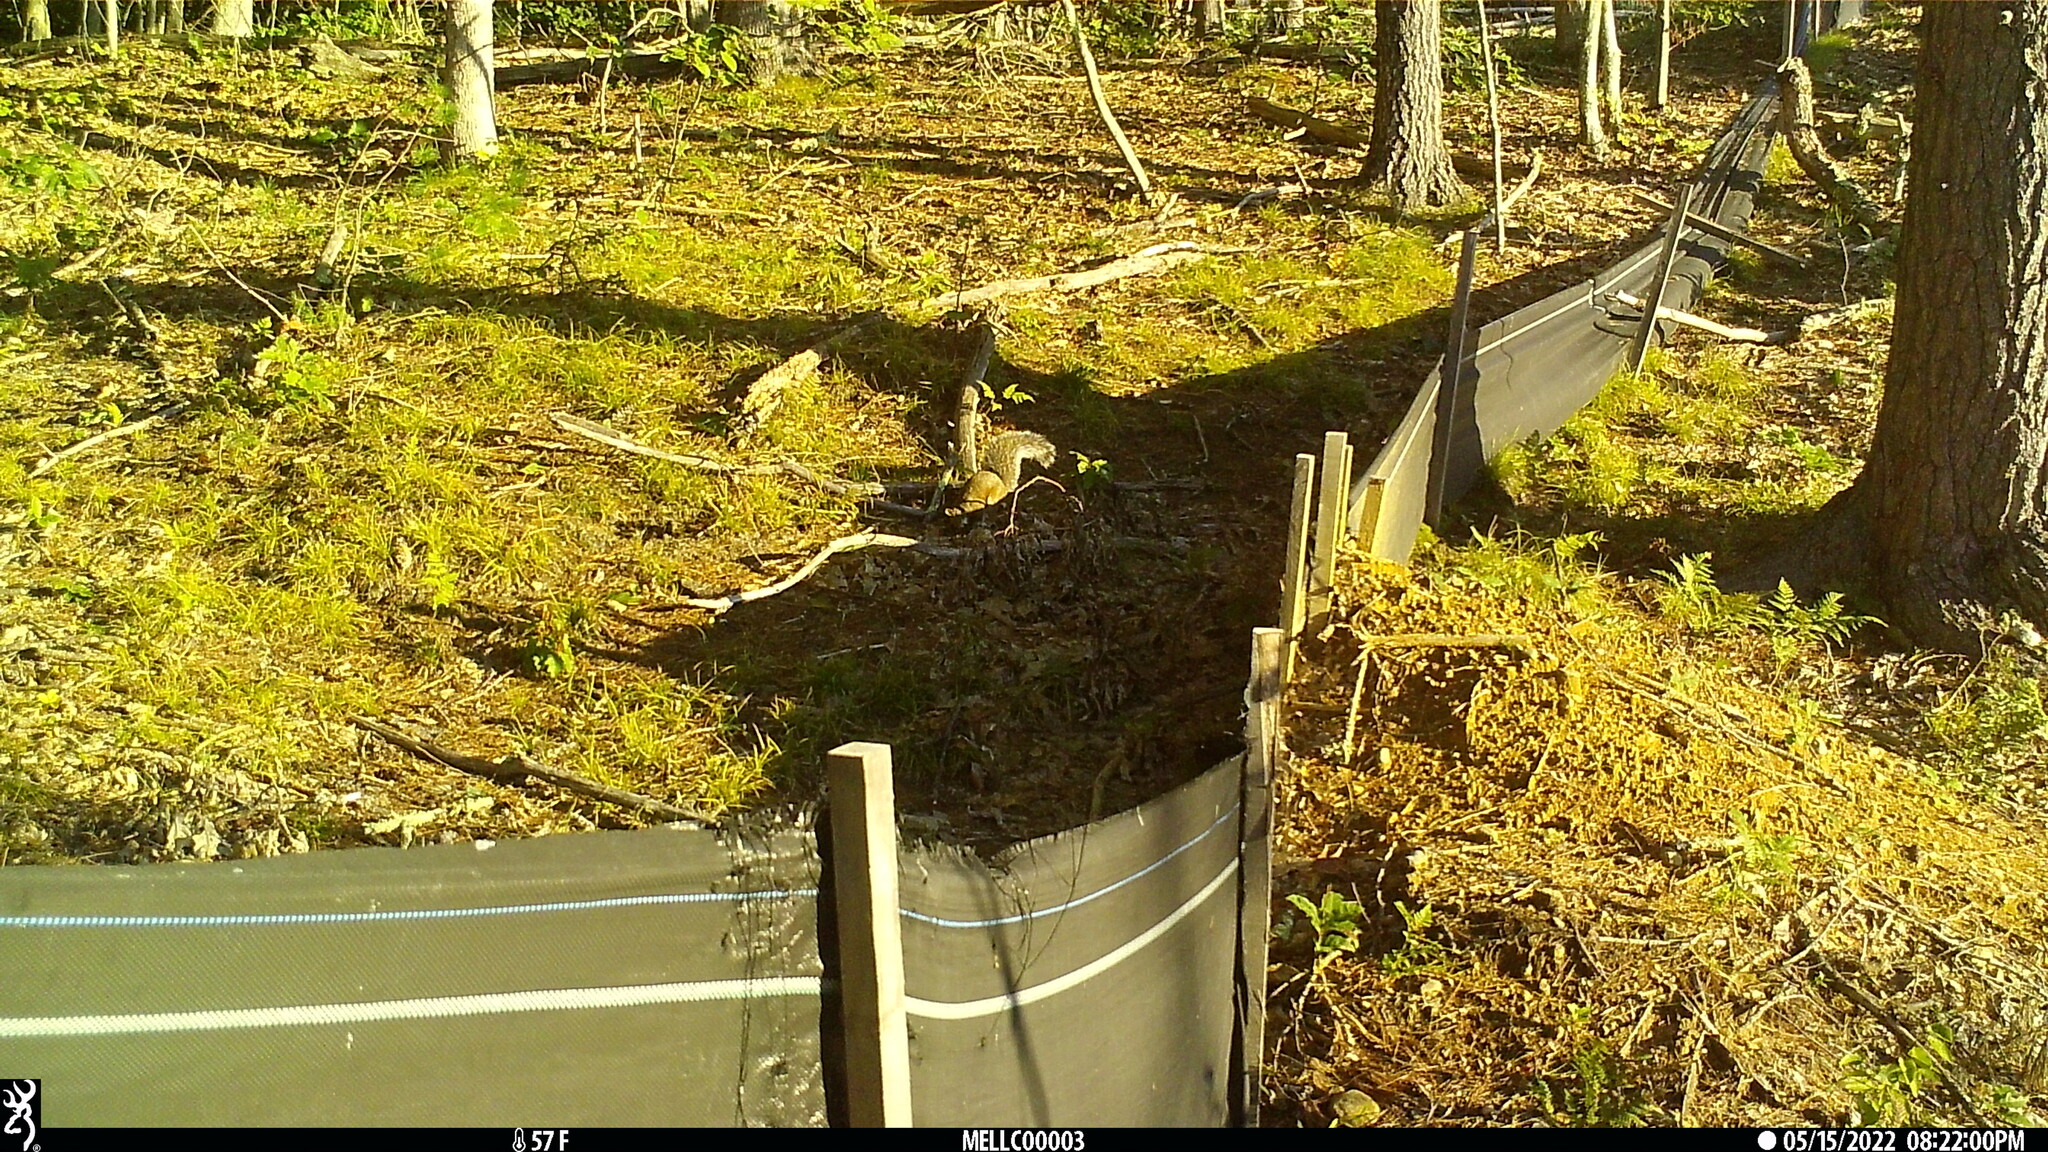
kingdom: Animalia
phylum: Chordata
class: Mammalia
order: Rodentia
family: Sciuridae
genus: Sciurus
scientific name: Sciurus carolinensis
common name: Eastern gray squirrel
